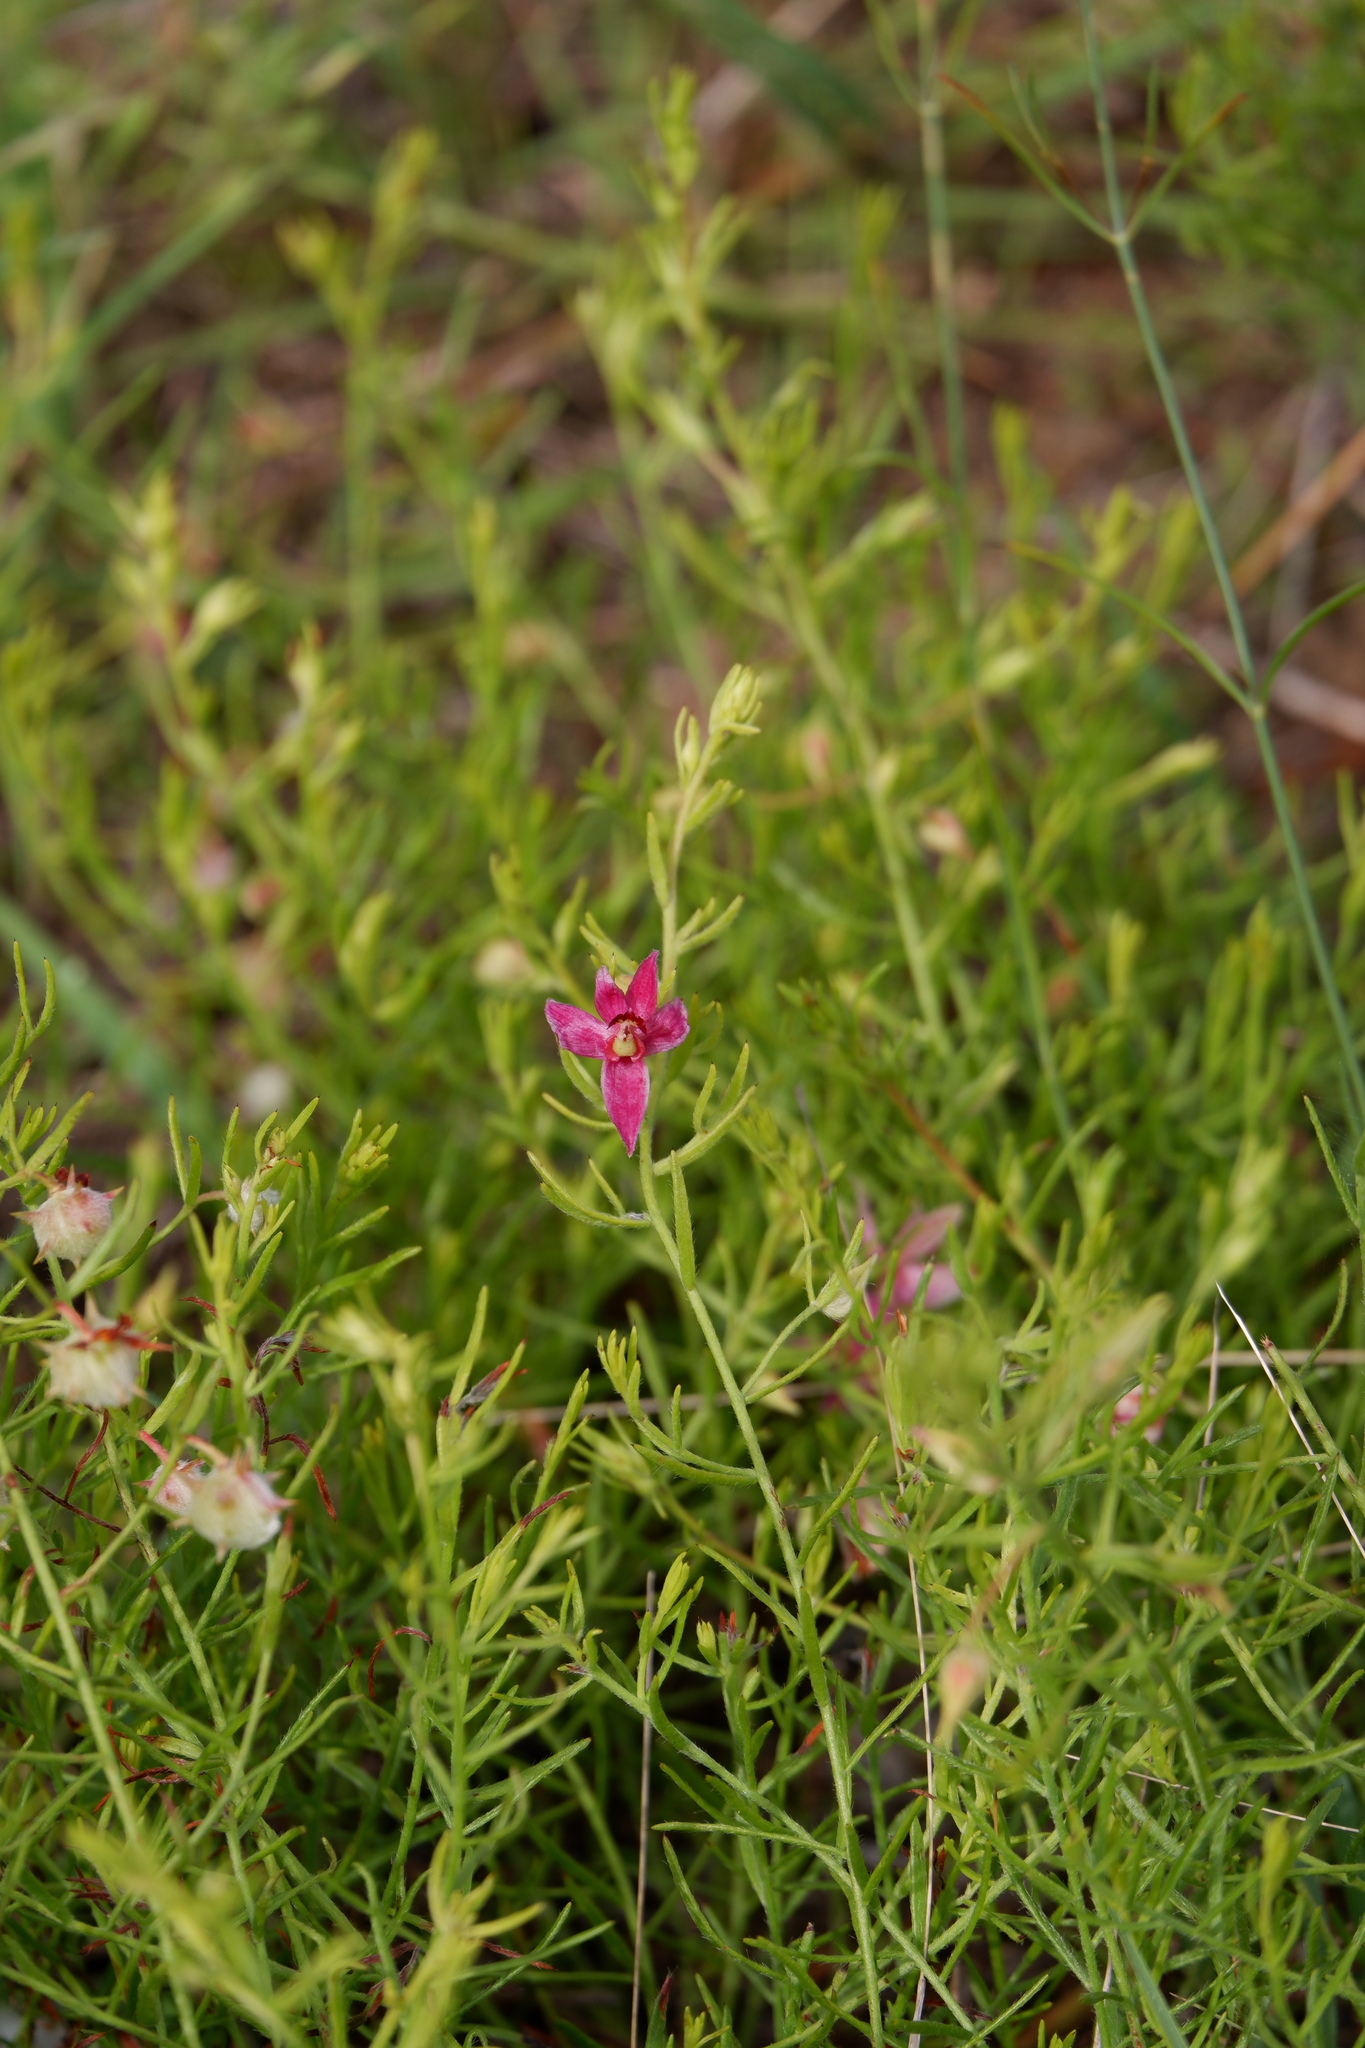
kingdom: Plantae
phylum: Tracheophyta
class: Magnoliopsida
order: Zygophyllales
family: Krameriaceae
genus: Krameria
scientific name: Krameria lanceolata
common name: Ratany
